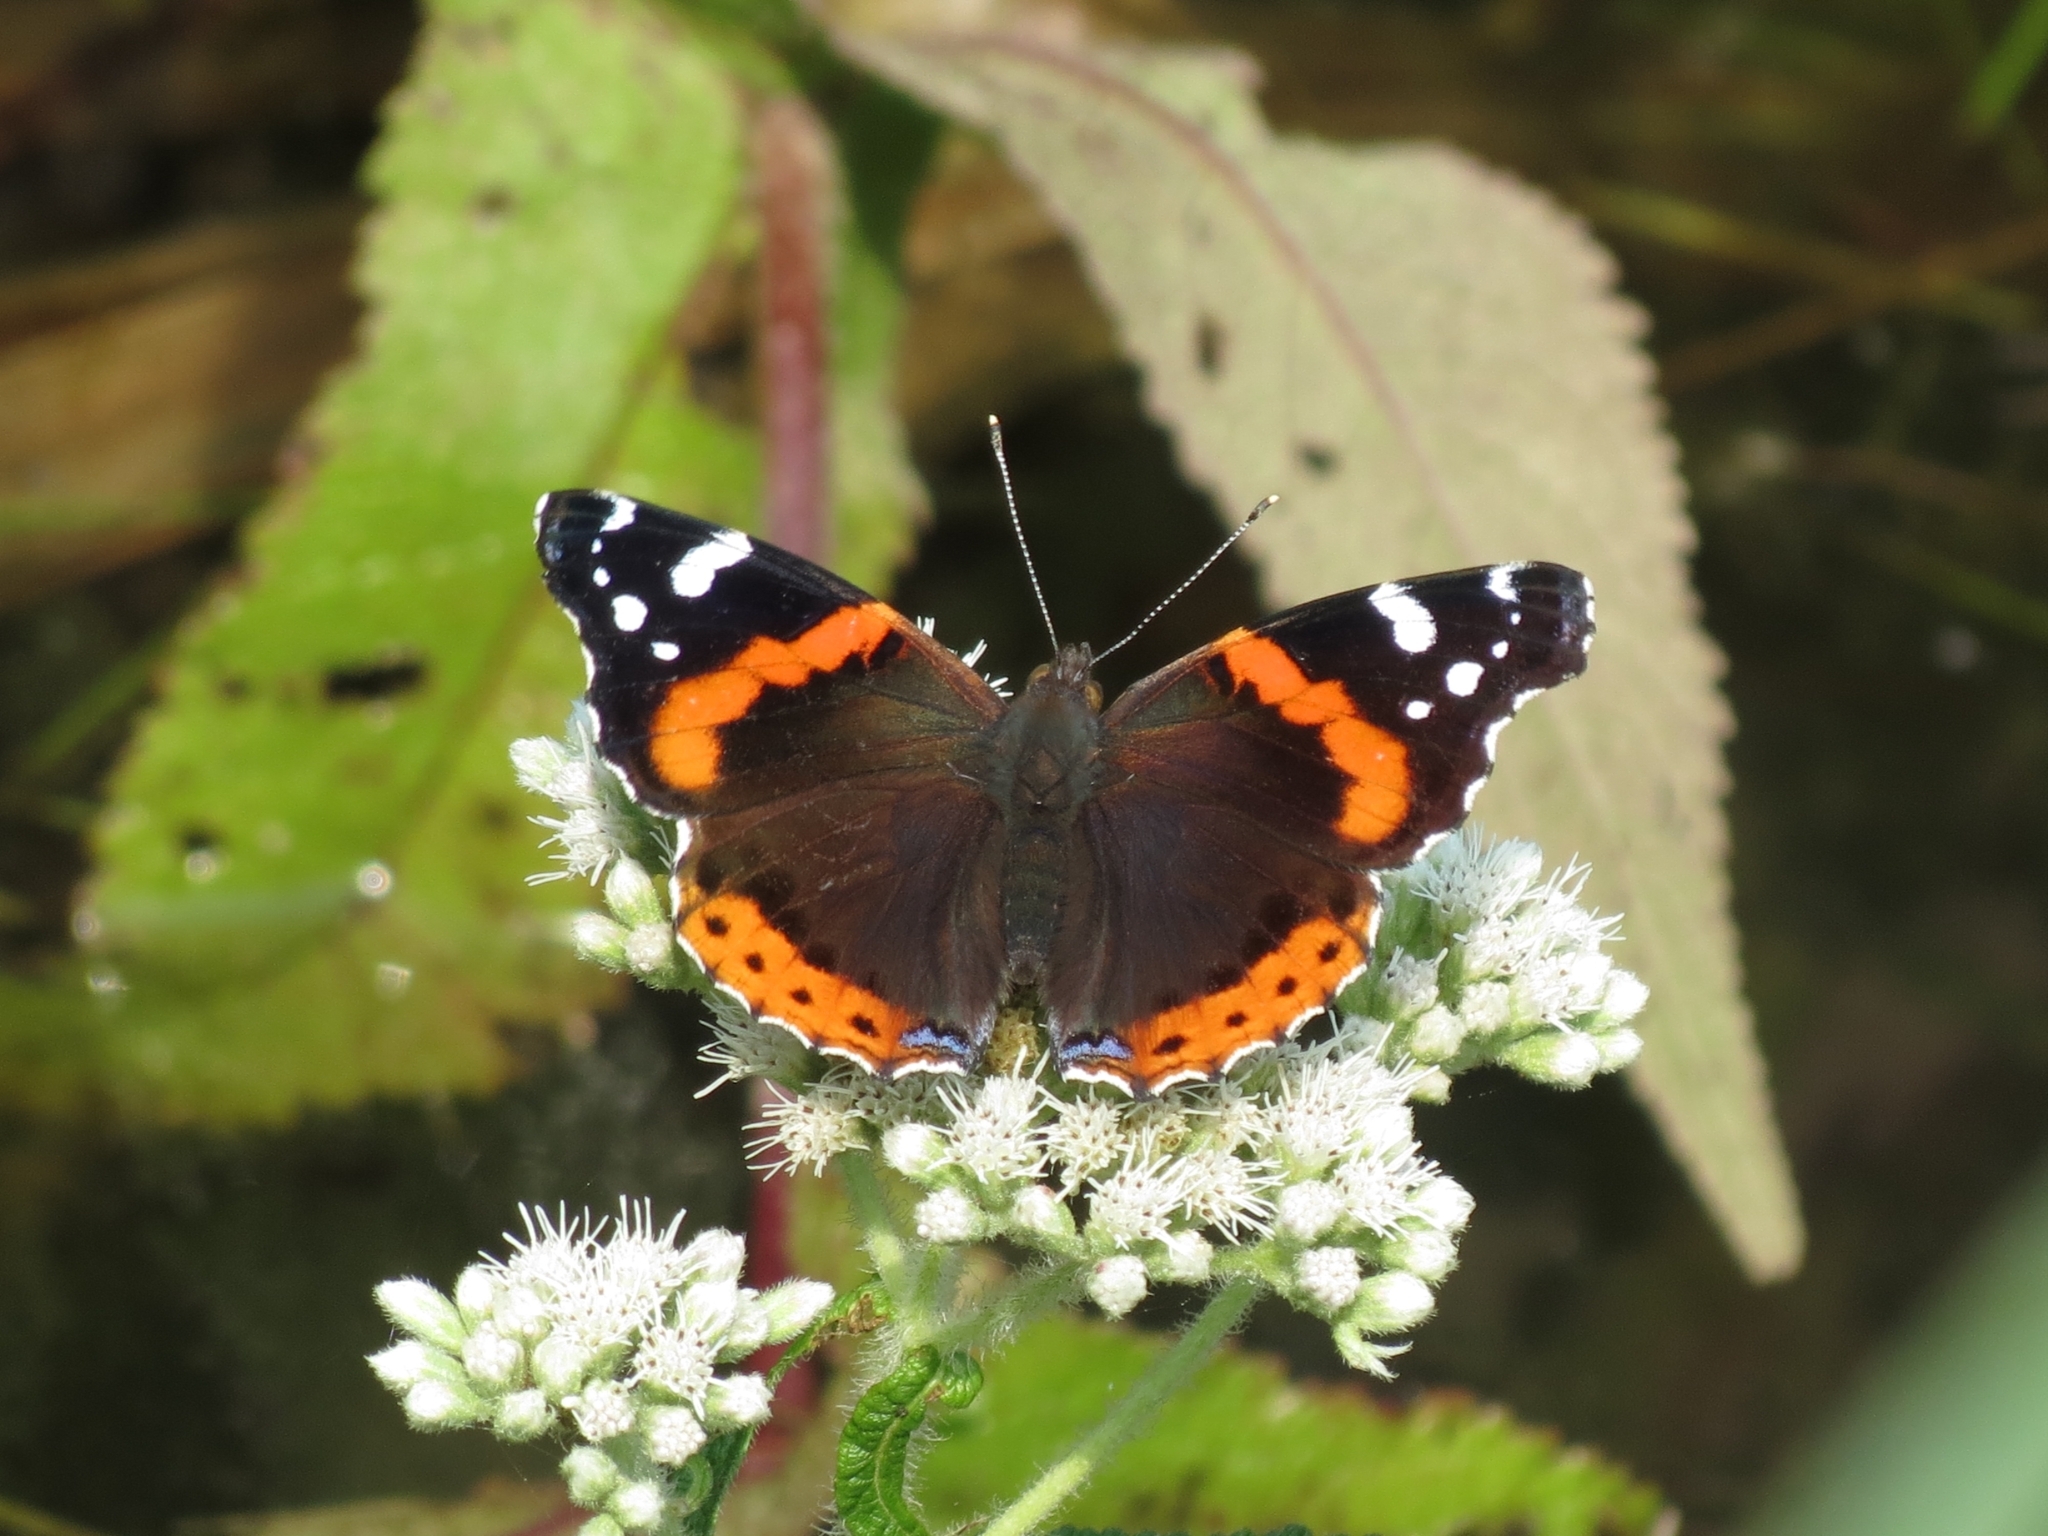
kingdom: Animalia
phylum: Arthropoda
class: Insecta
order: Lepidoptera
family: Nymphalidae
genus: Vanessa
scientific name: Vanessa atalanta
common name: Red admiral
